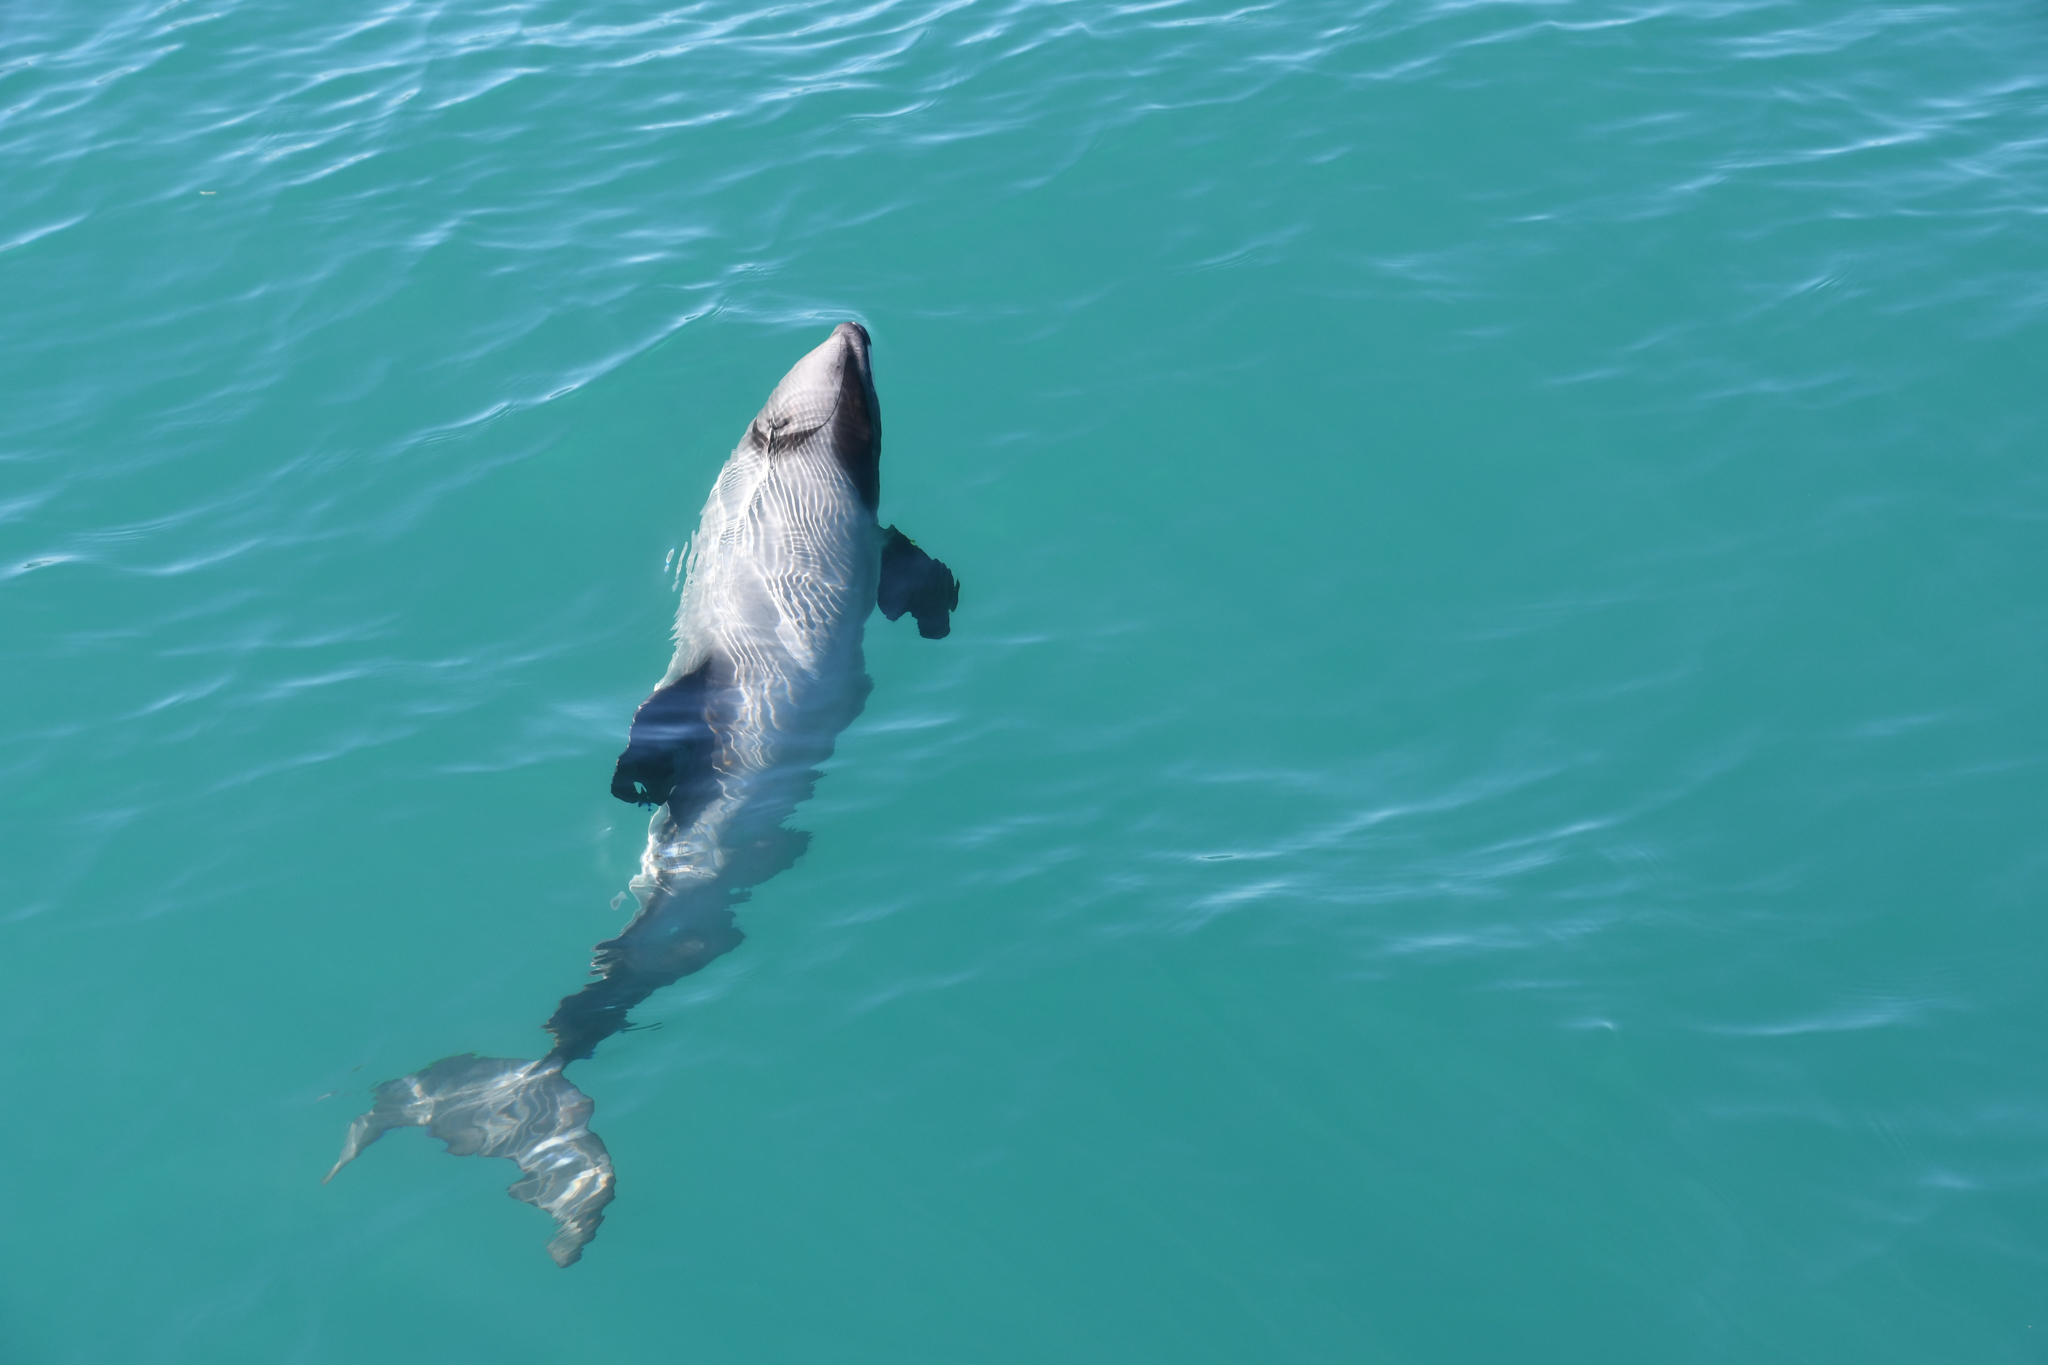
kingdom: Animalia
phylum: Chordata
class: Mammalia
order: Cetacea
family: Delphinidae
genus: Cephalorhynchus
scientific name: Cephalorhynchus hectori
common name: Hector's dolphin
